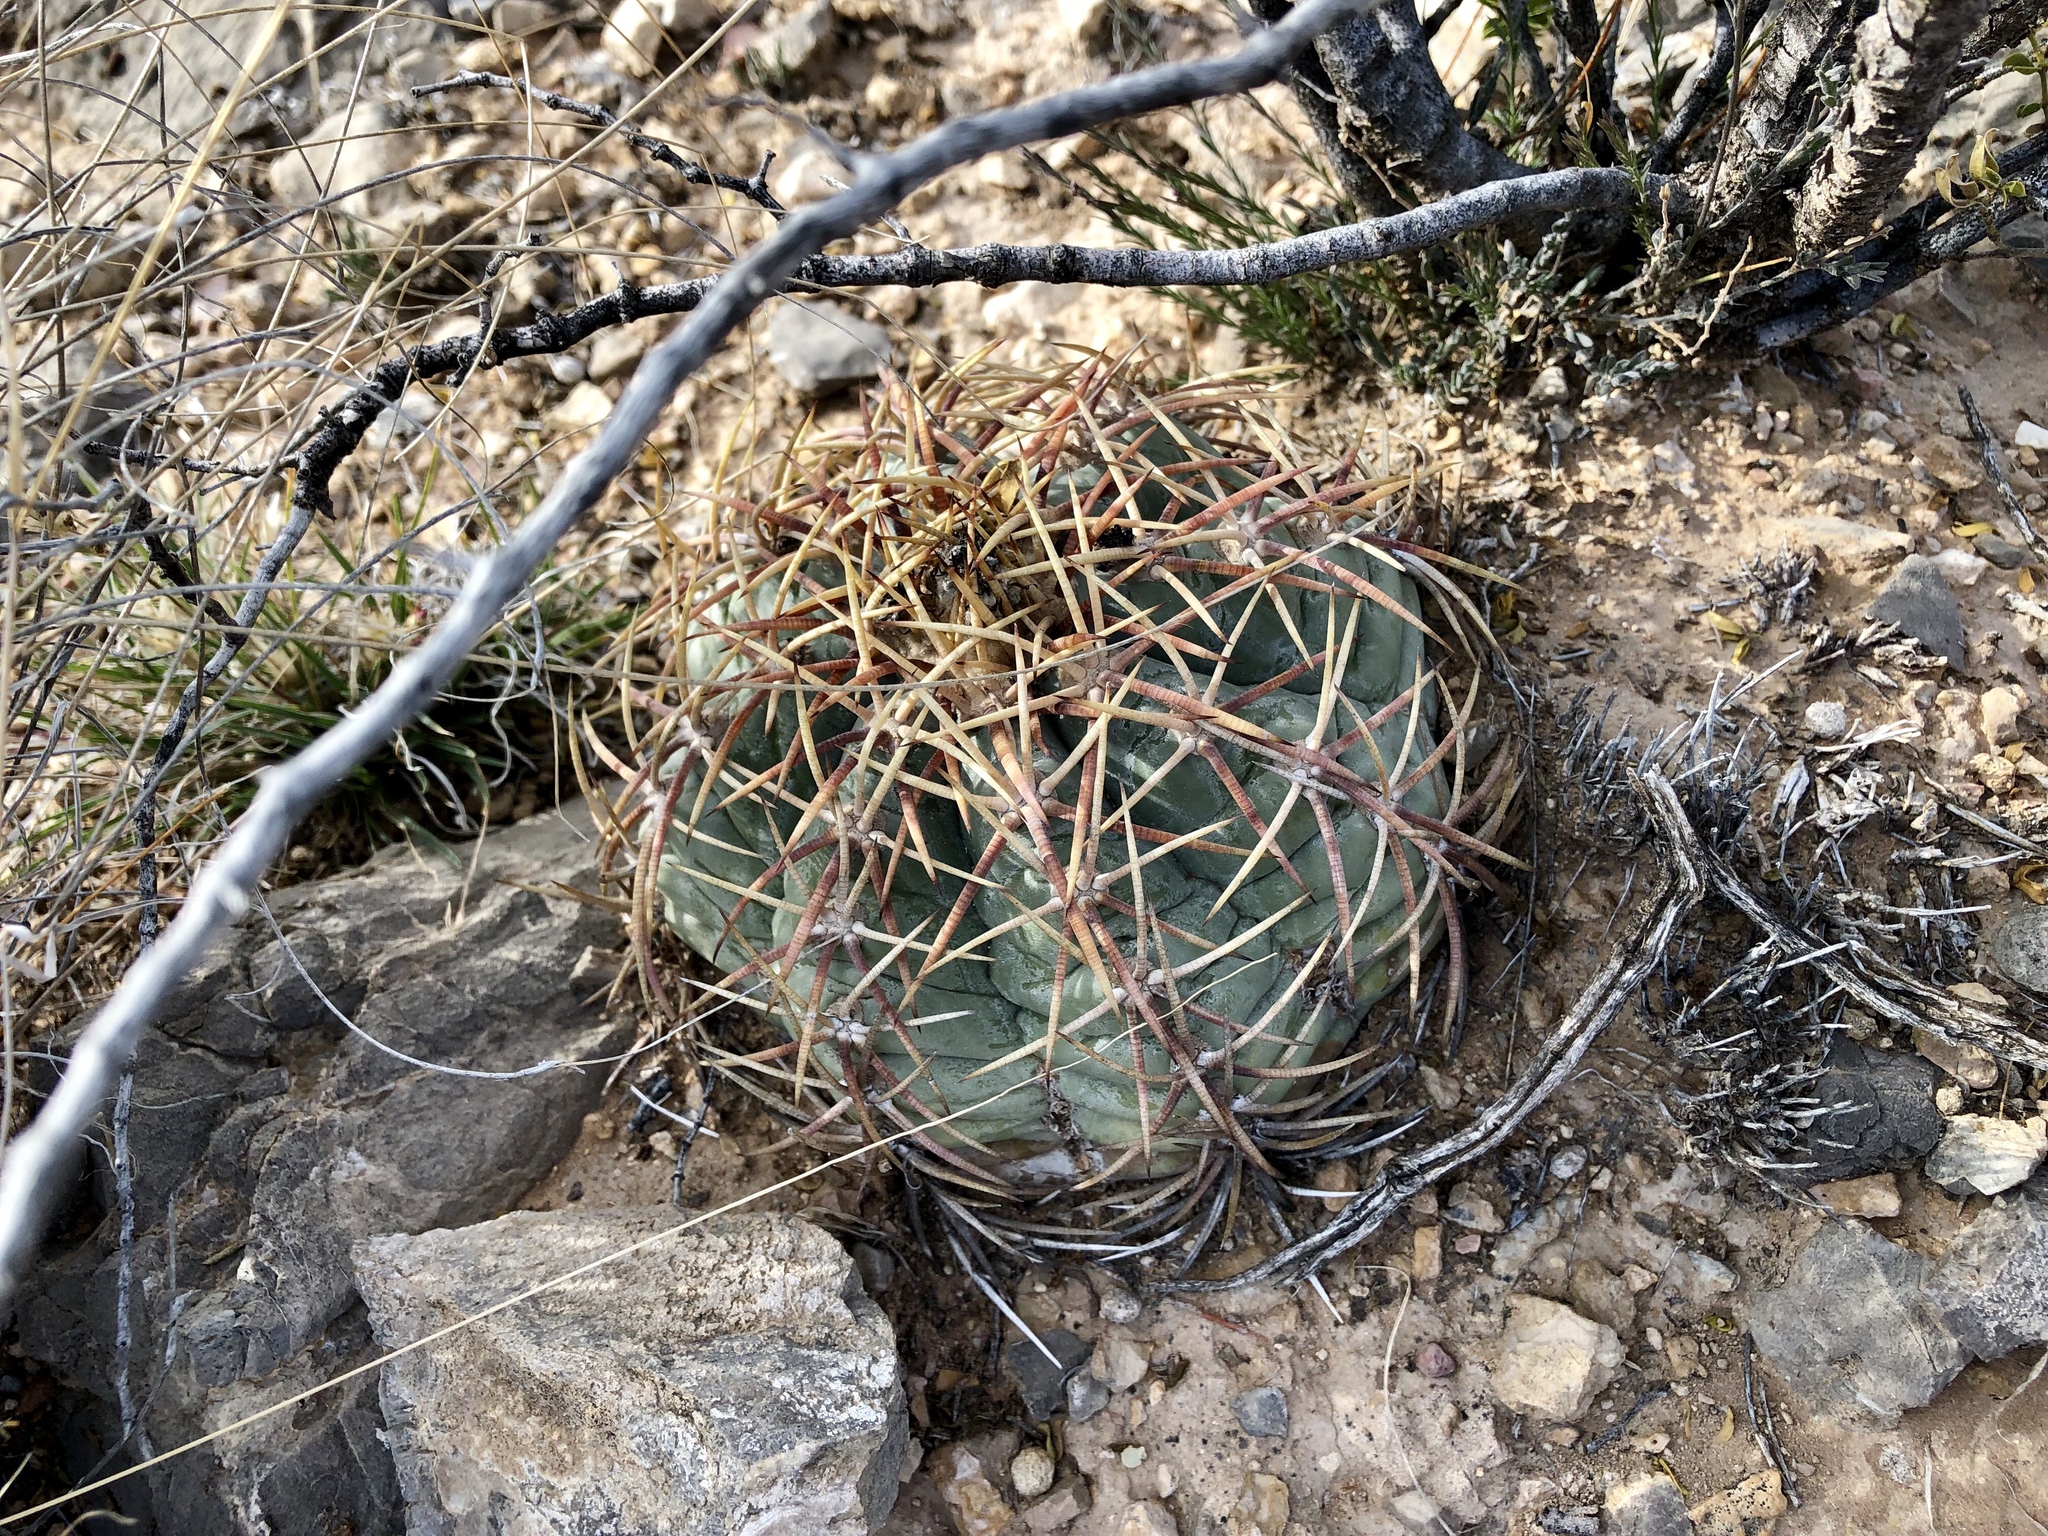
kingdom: Plantae
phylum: Tracheophyta
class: Magnoliopsida
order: Caryophyllales
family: Cactaceae
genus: Echinocactus
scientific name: Echinocactus horizonthalonius
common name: Devilshead
